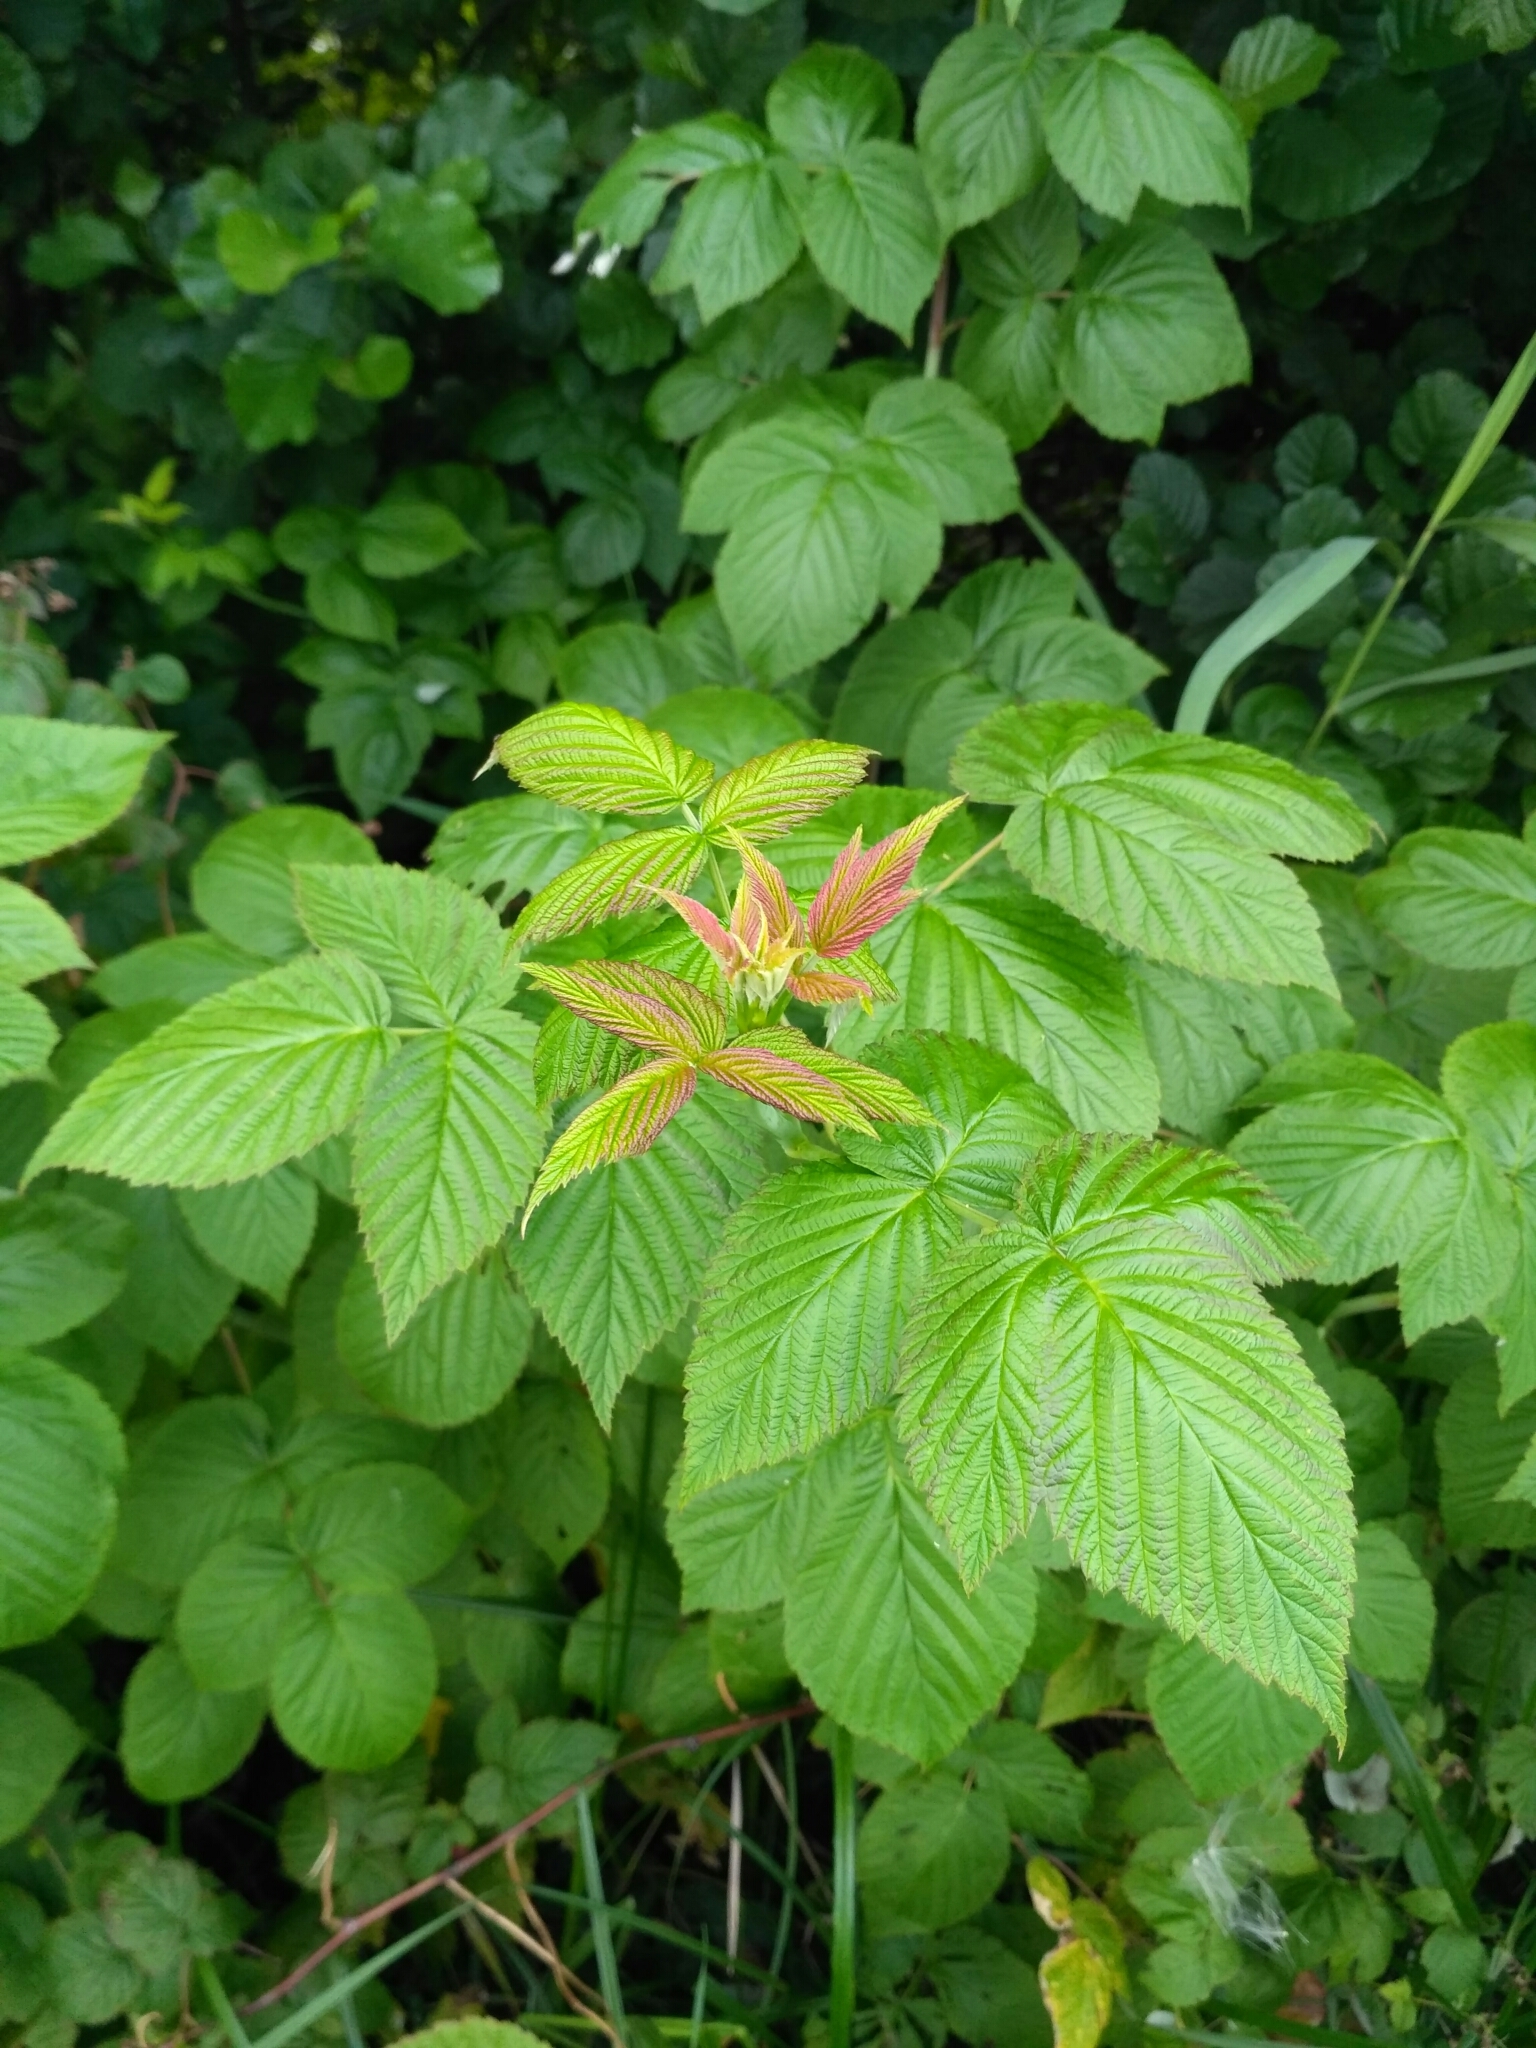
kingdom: Plantae
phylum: Tracheophyta
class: Magnoliopsida
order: Rosales
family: Rosaceae
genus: Rubus
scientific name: Rubus idaeus
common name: Raspberry
